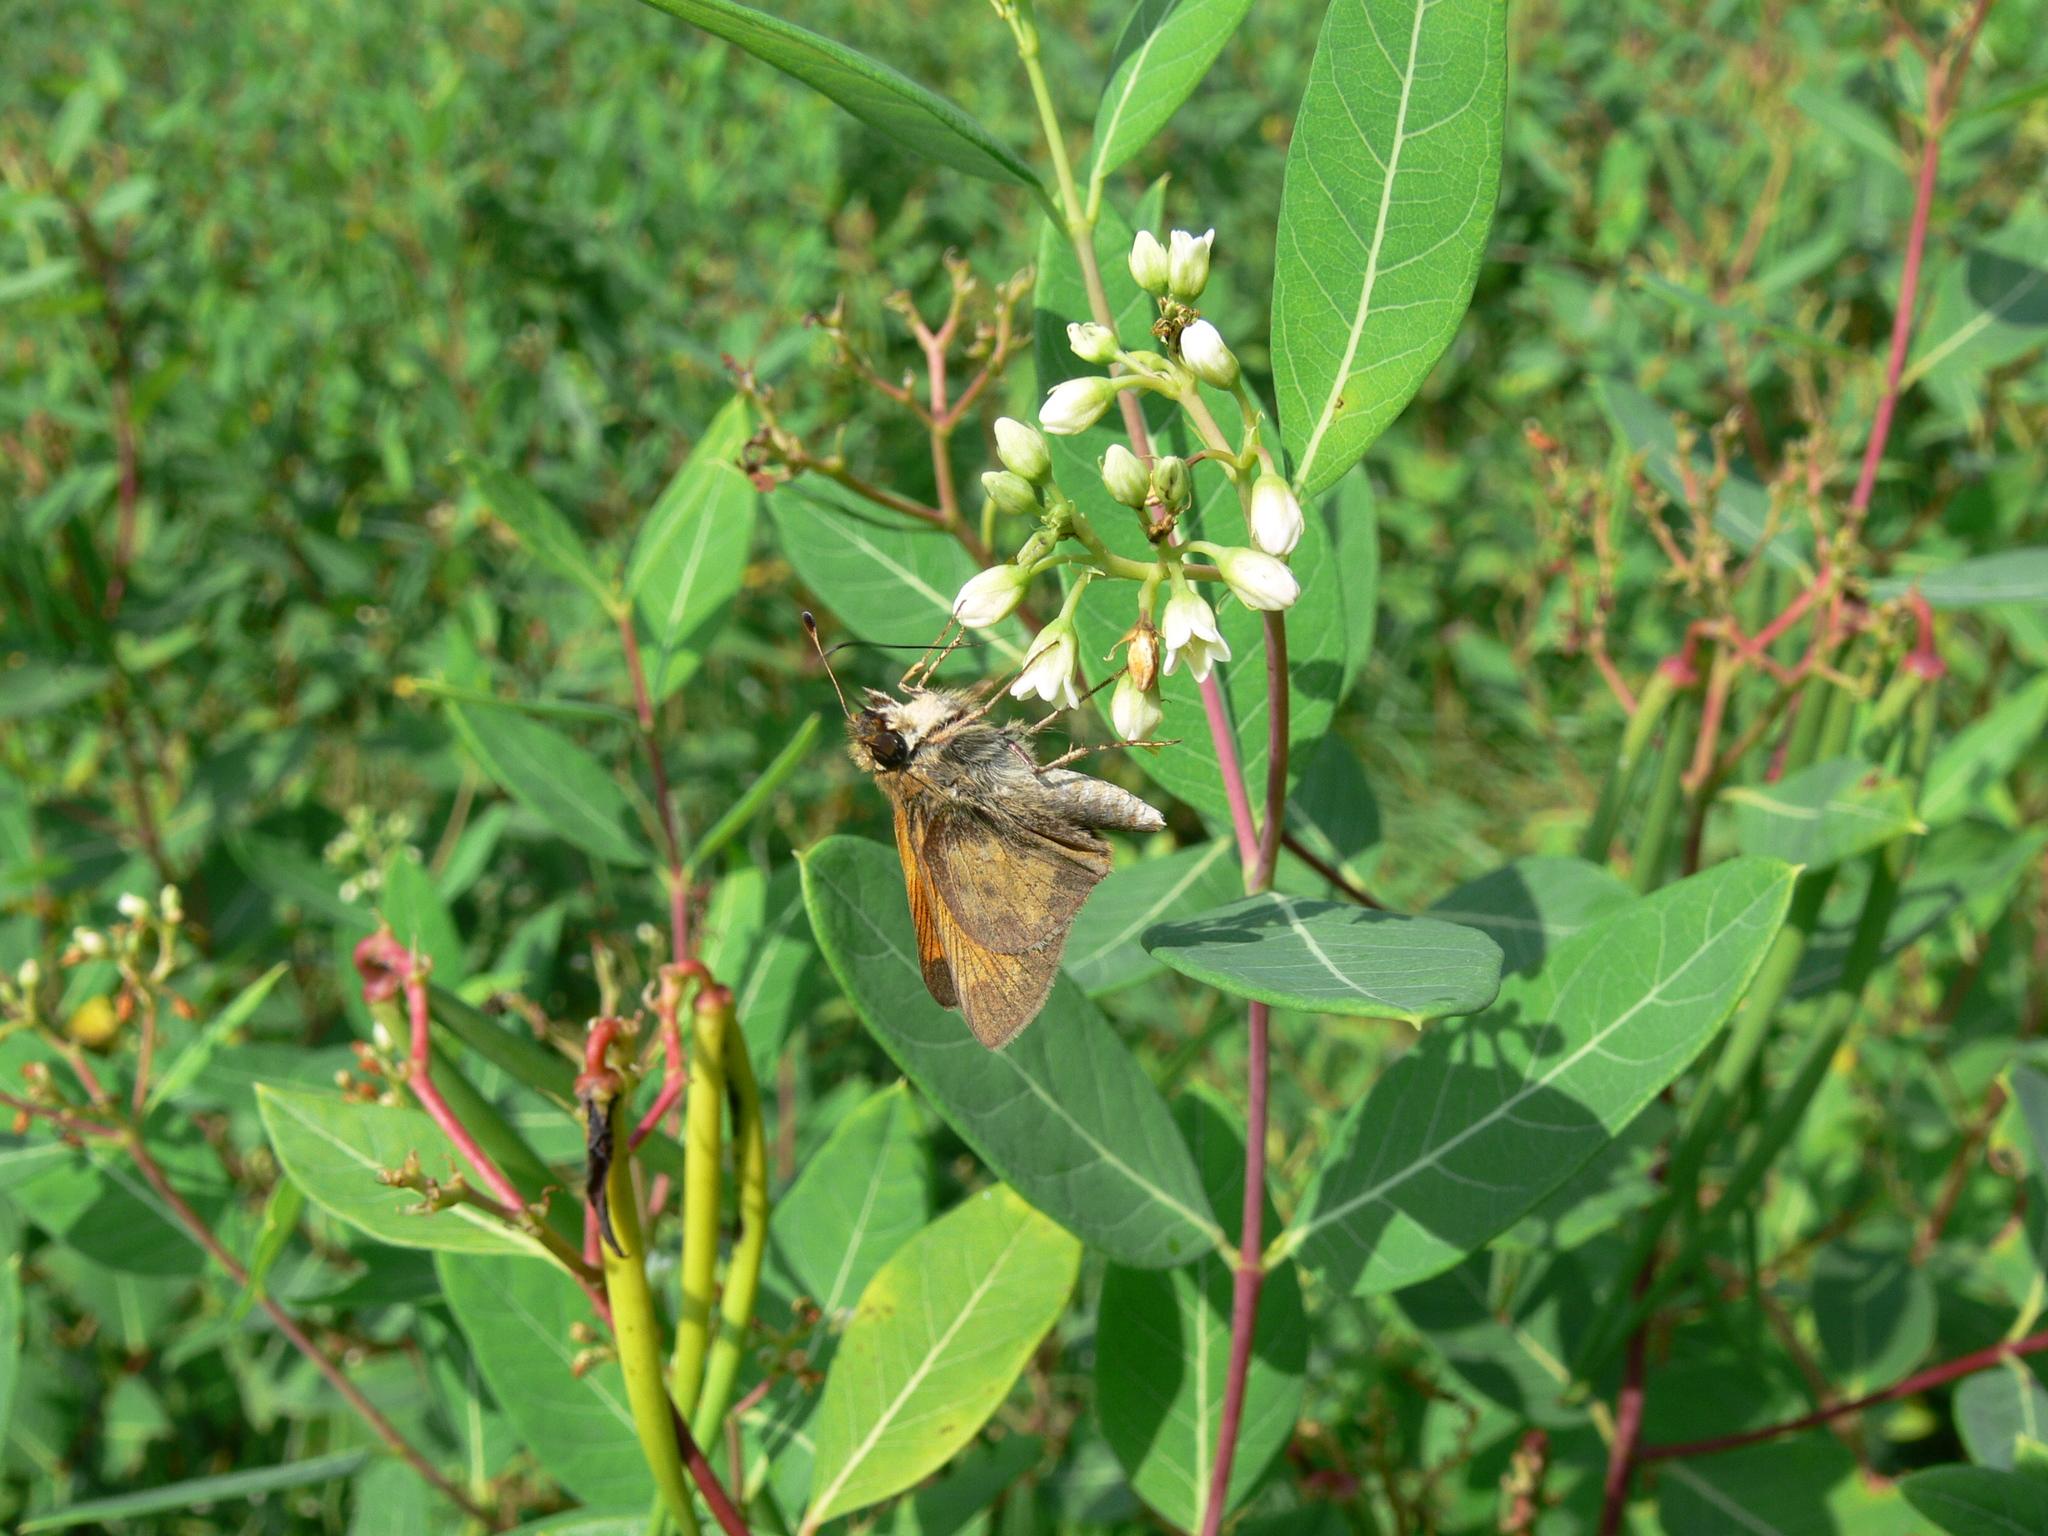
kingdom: Animalia
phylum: Arthropoda
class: Insecta
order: Lepidoptera
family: Hesperiidae
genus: Atalopedes
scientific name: Atalopedes
